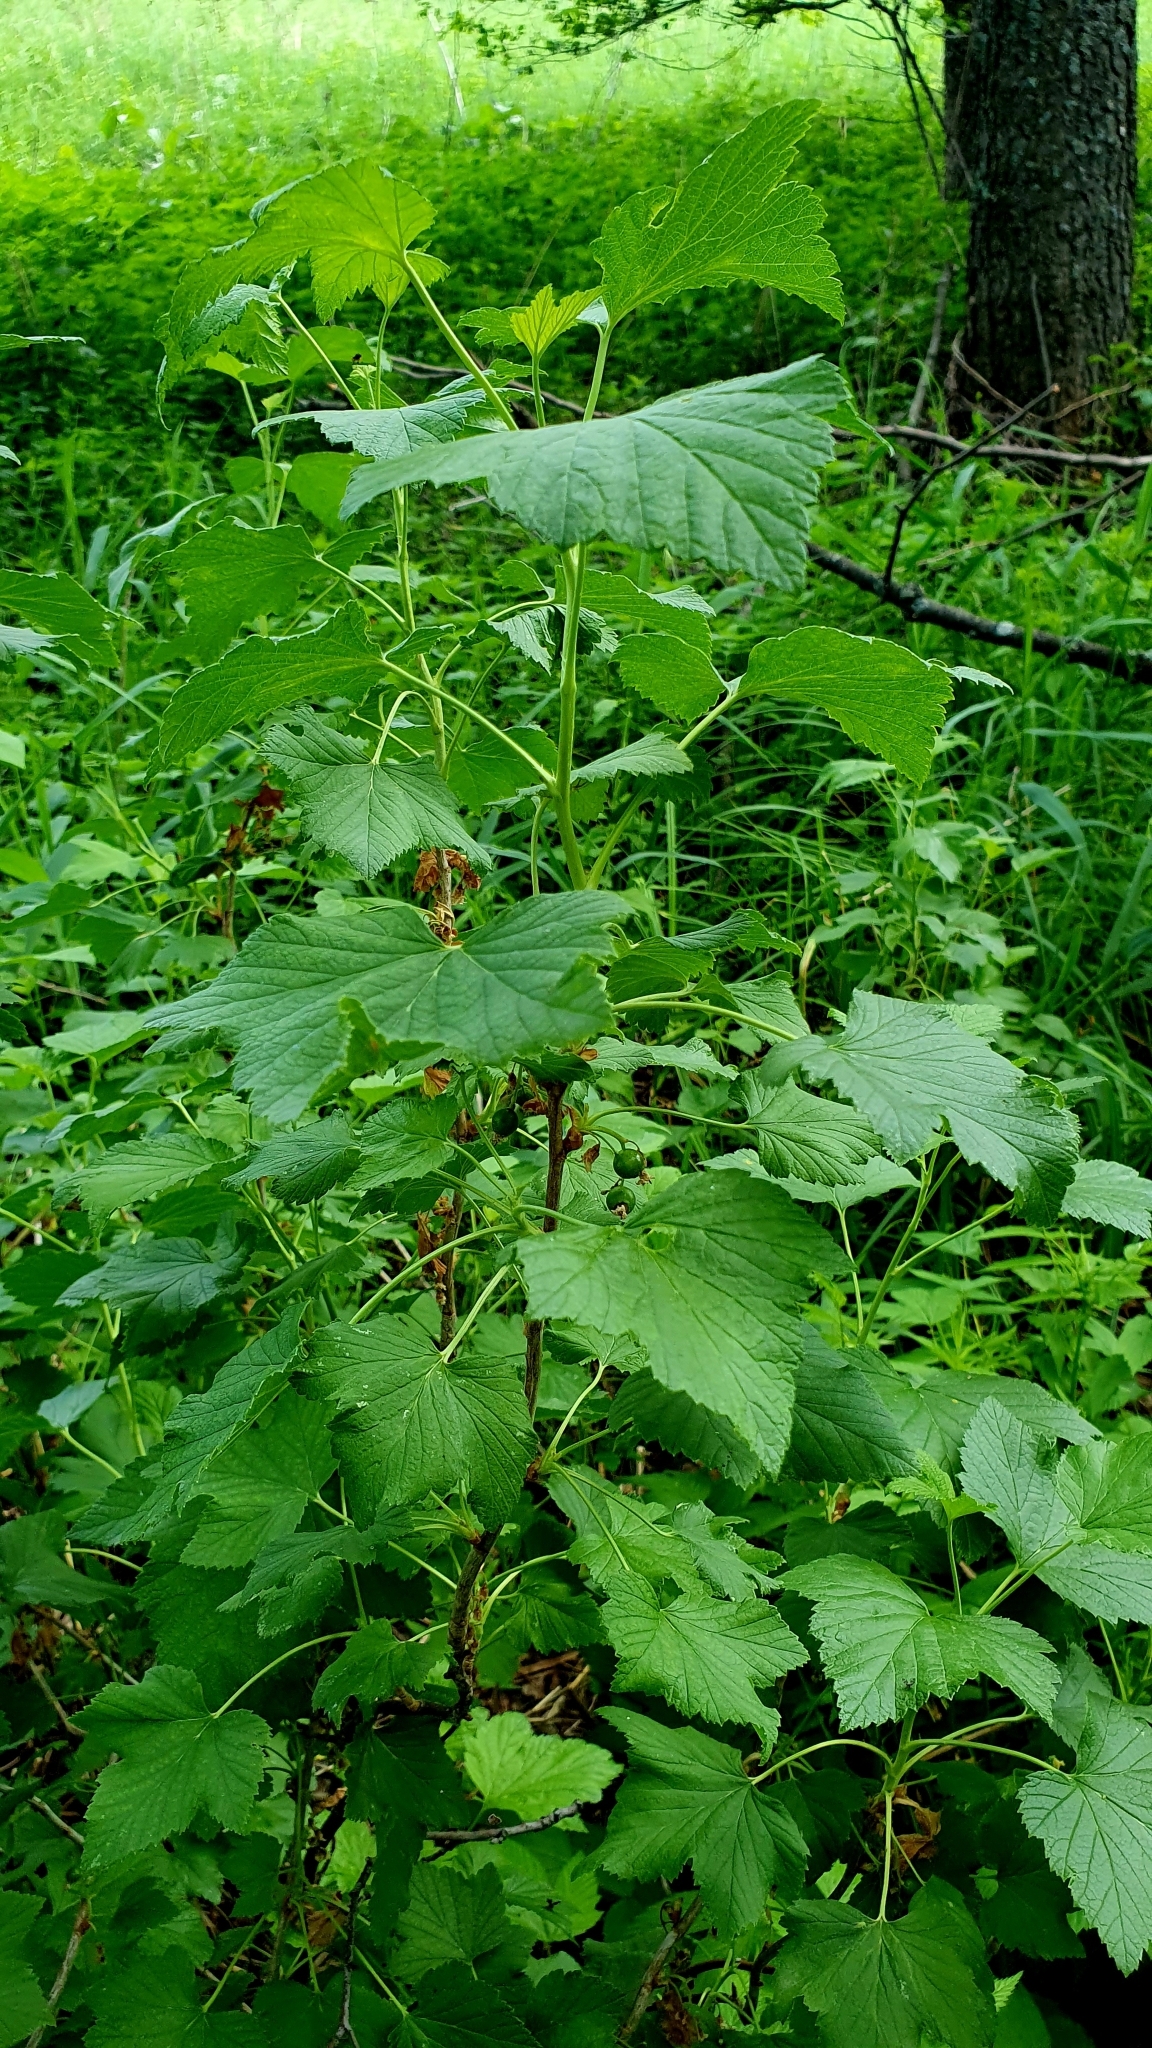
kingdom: Plantae
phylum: Tracheophyta
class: Magnoliopsida
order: Saxifragales
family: Grossulariaceae
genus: Ribes
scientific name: Ribes nigrum
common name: Black currant
